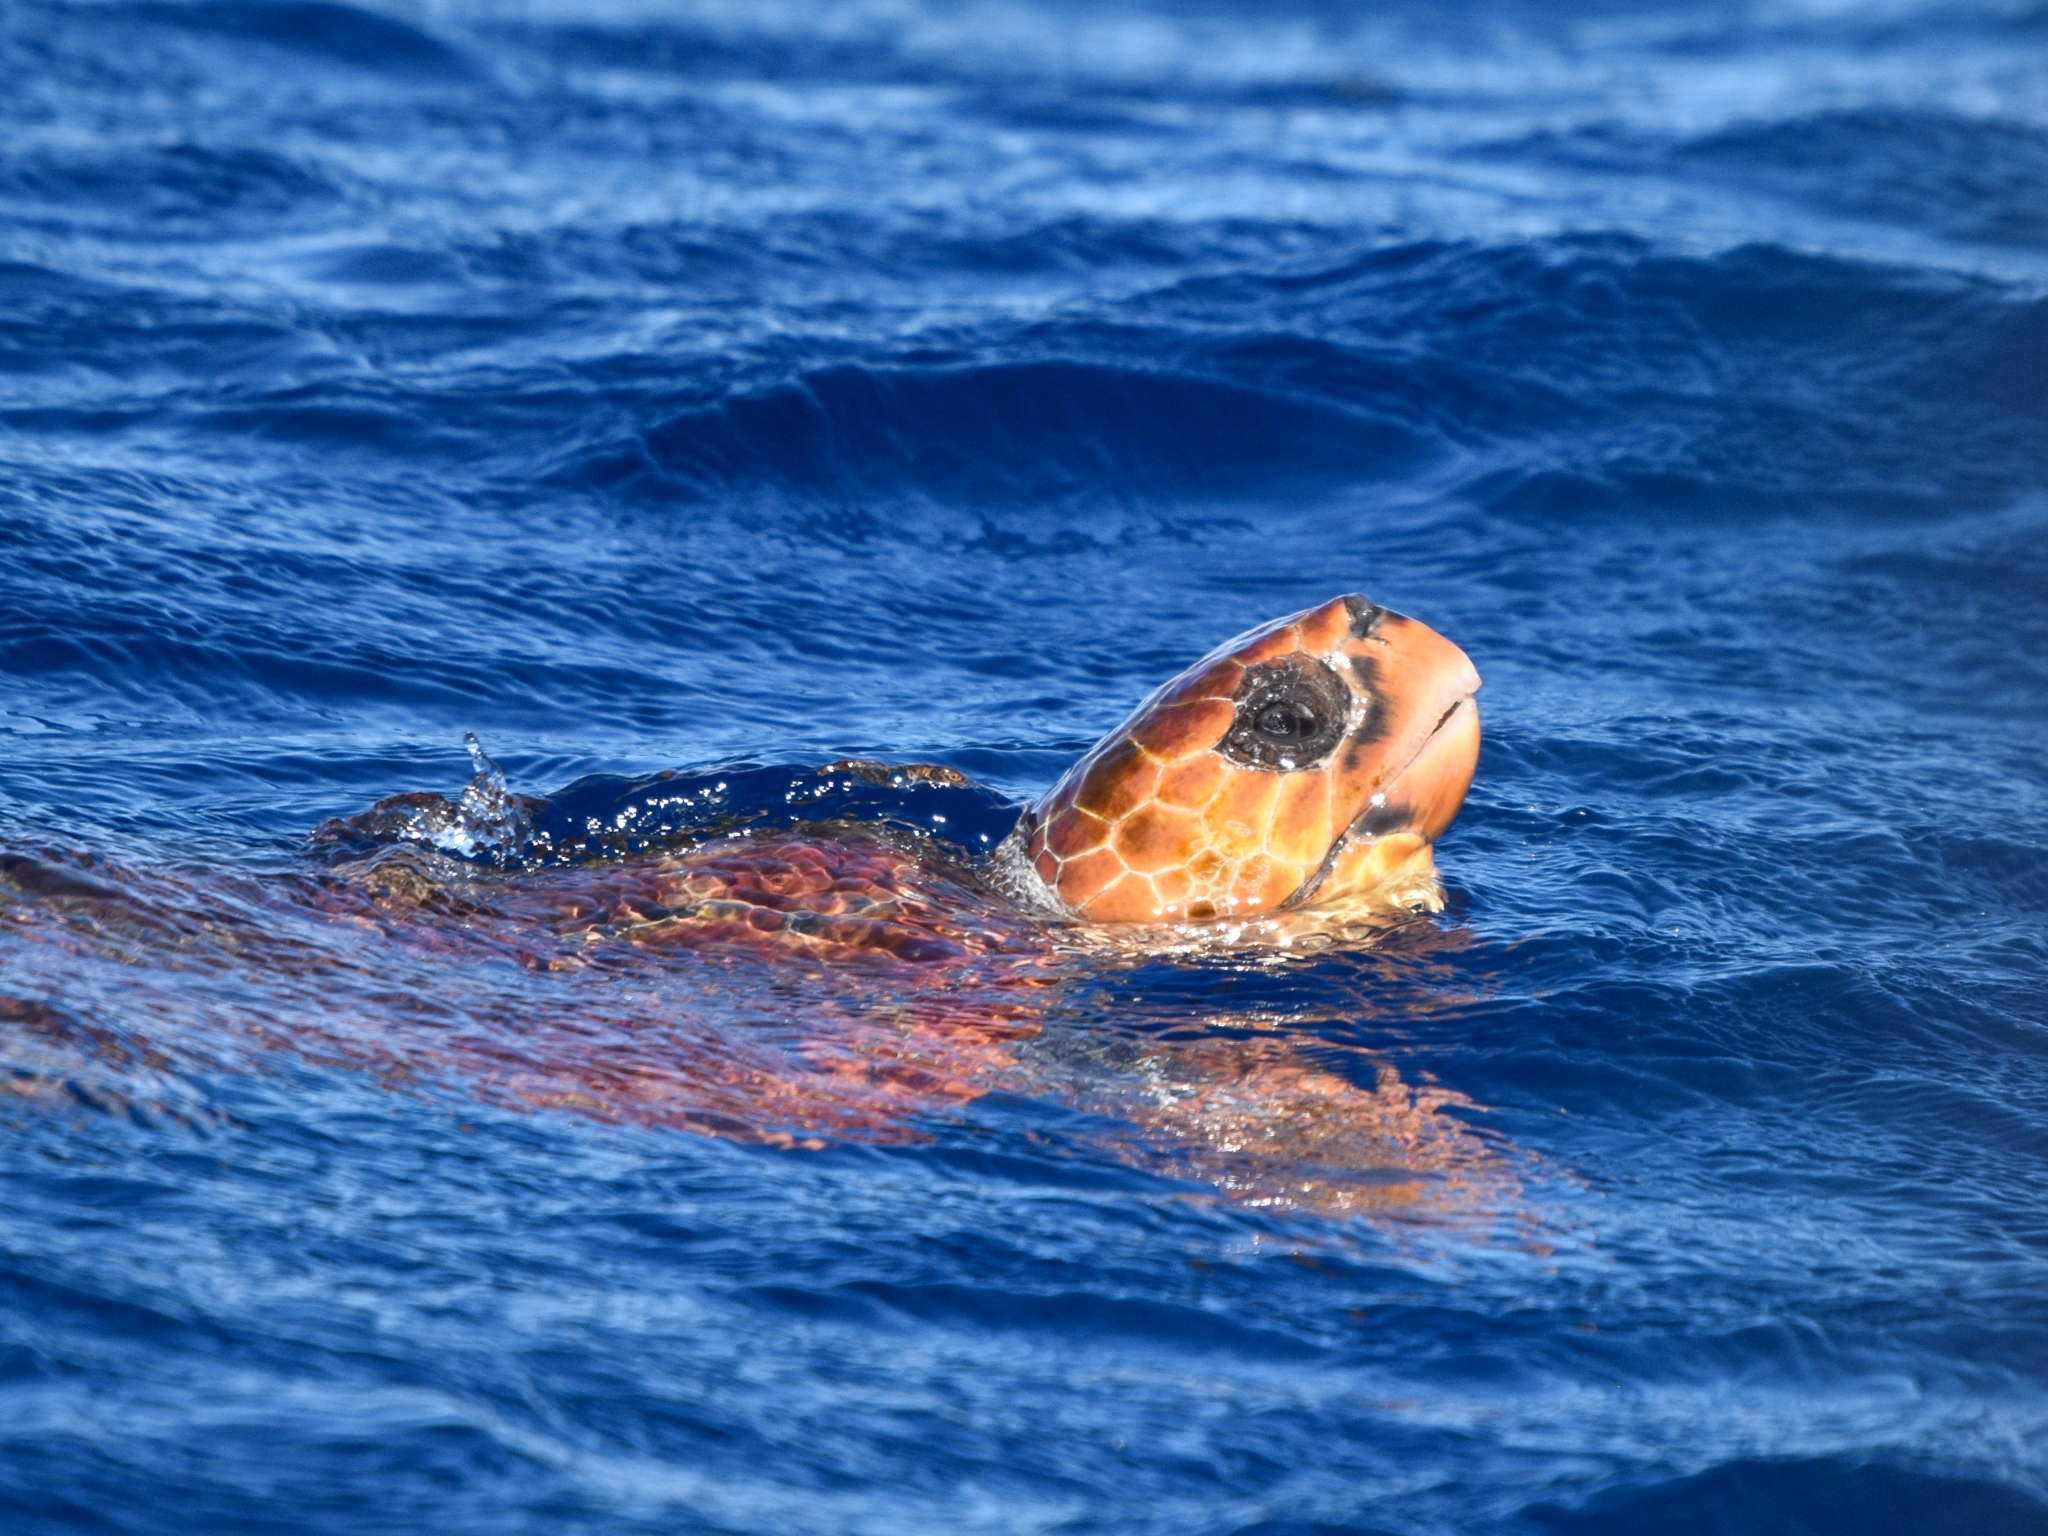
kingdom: Animalia
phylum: Chordata
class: Testudines
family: Cheloniidae
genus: Caretta
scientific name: Caretta caretta
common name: Loggerhead sea turtle
